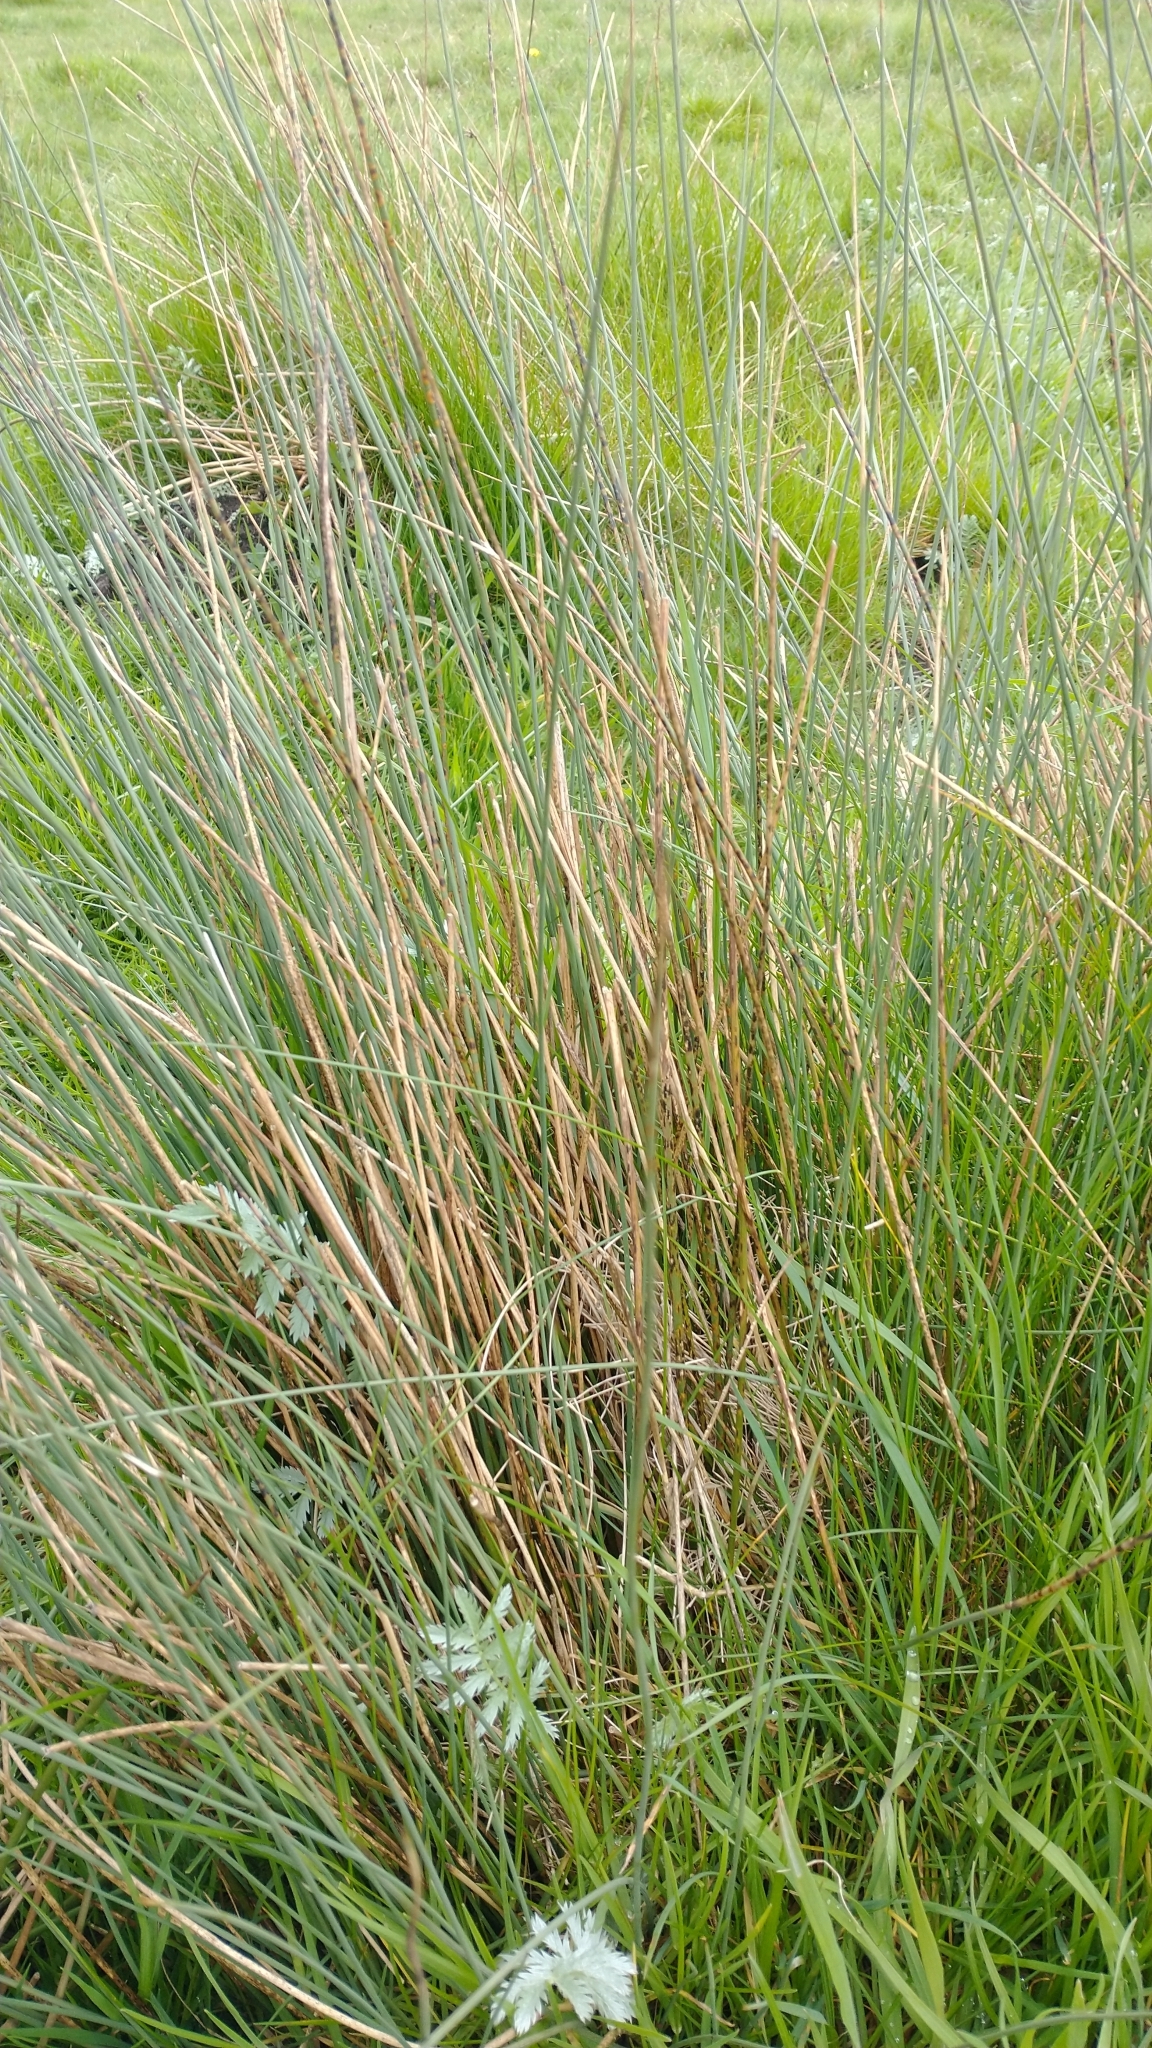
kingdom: Plantae
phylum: Tracheophyta
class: Liliopsida
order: Poales
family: Juncaceae
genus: Juncus
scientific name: Juncus inflexus
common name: Hard rush
